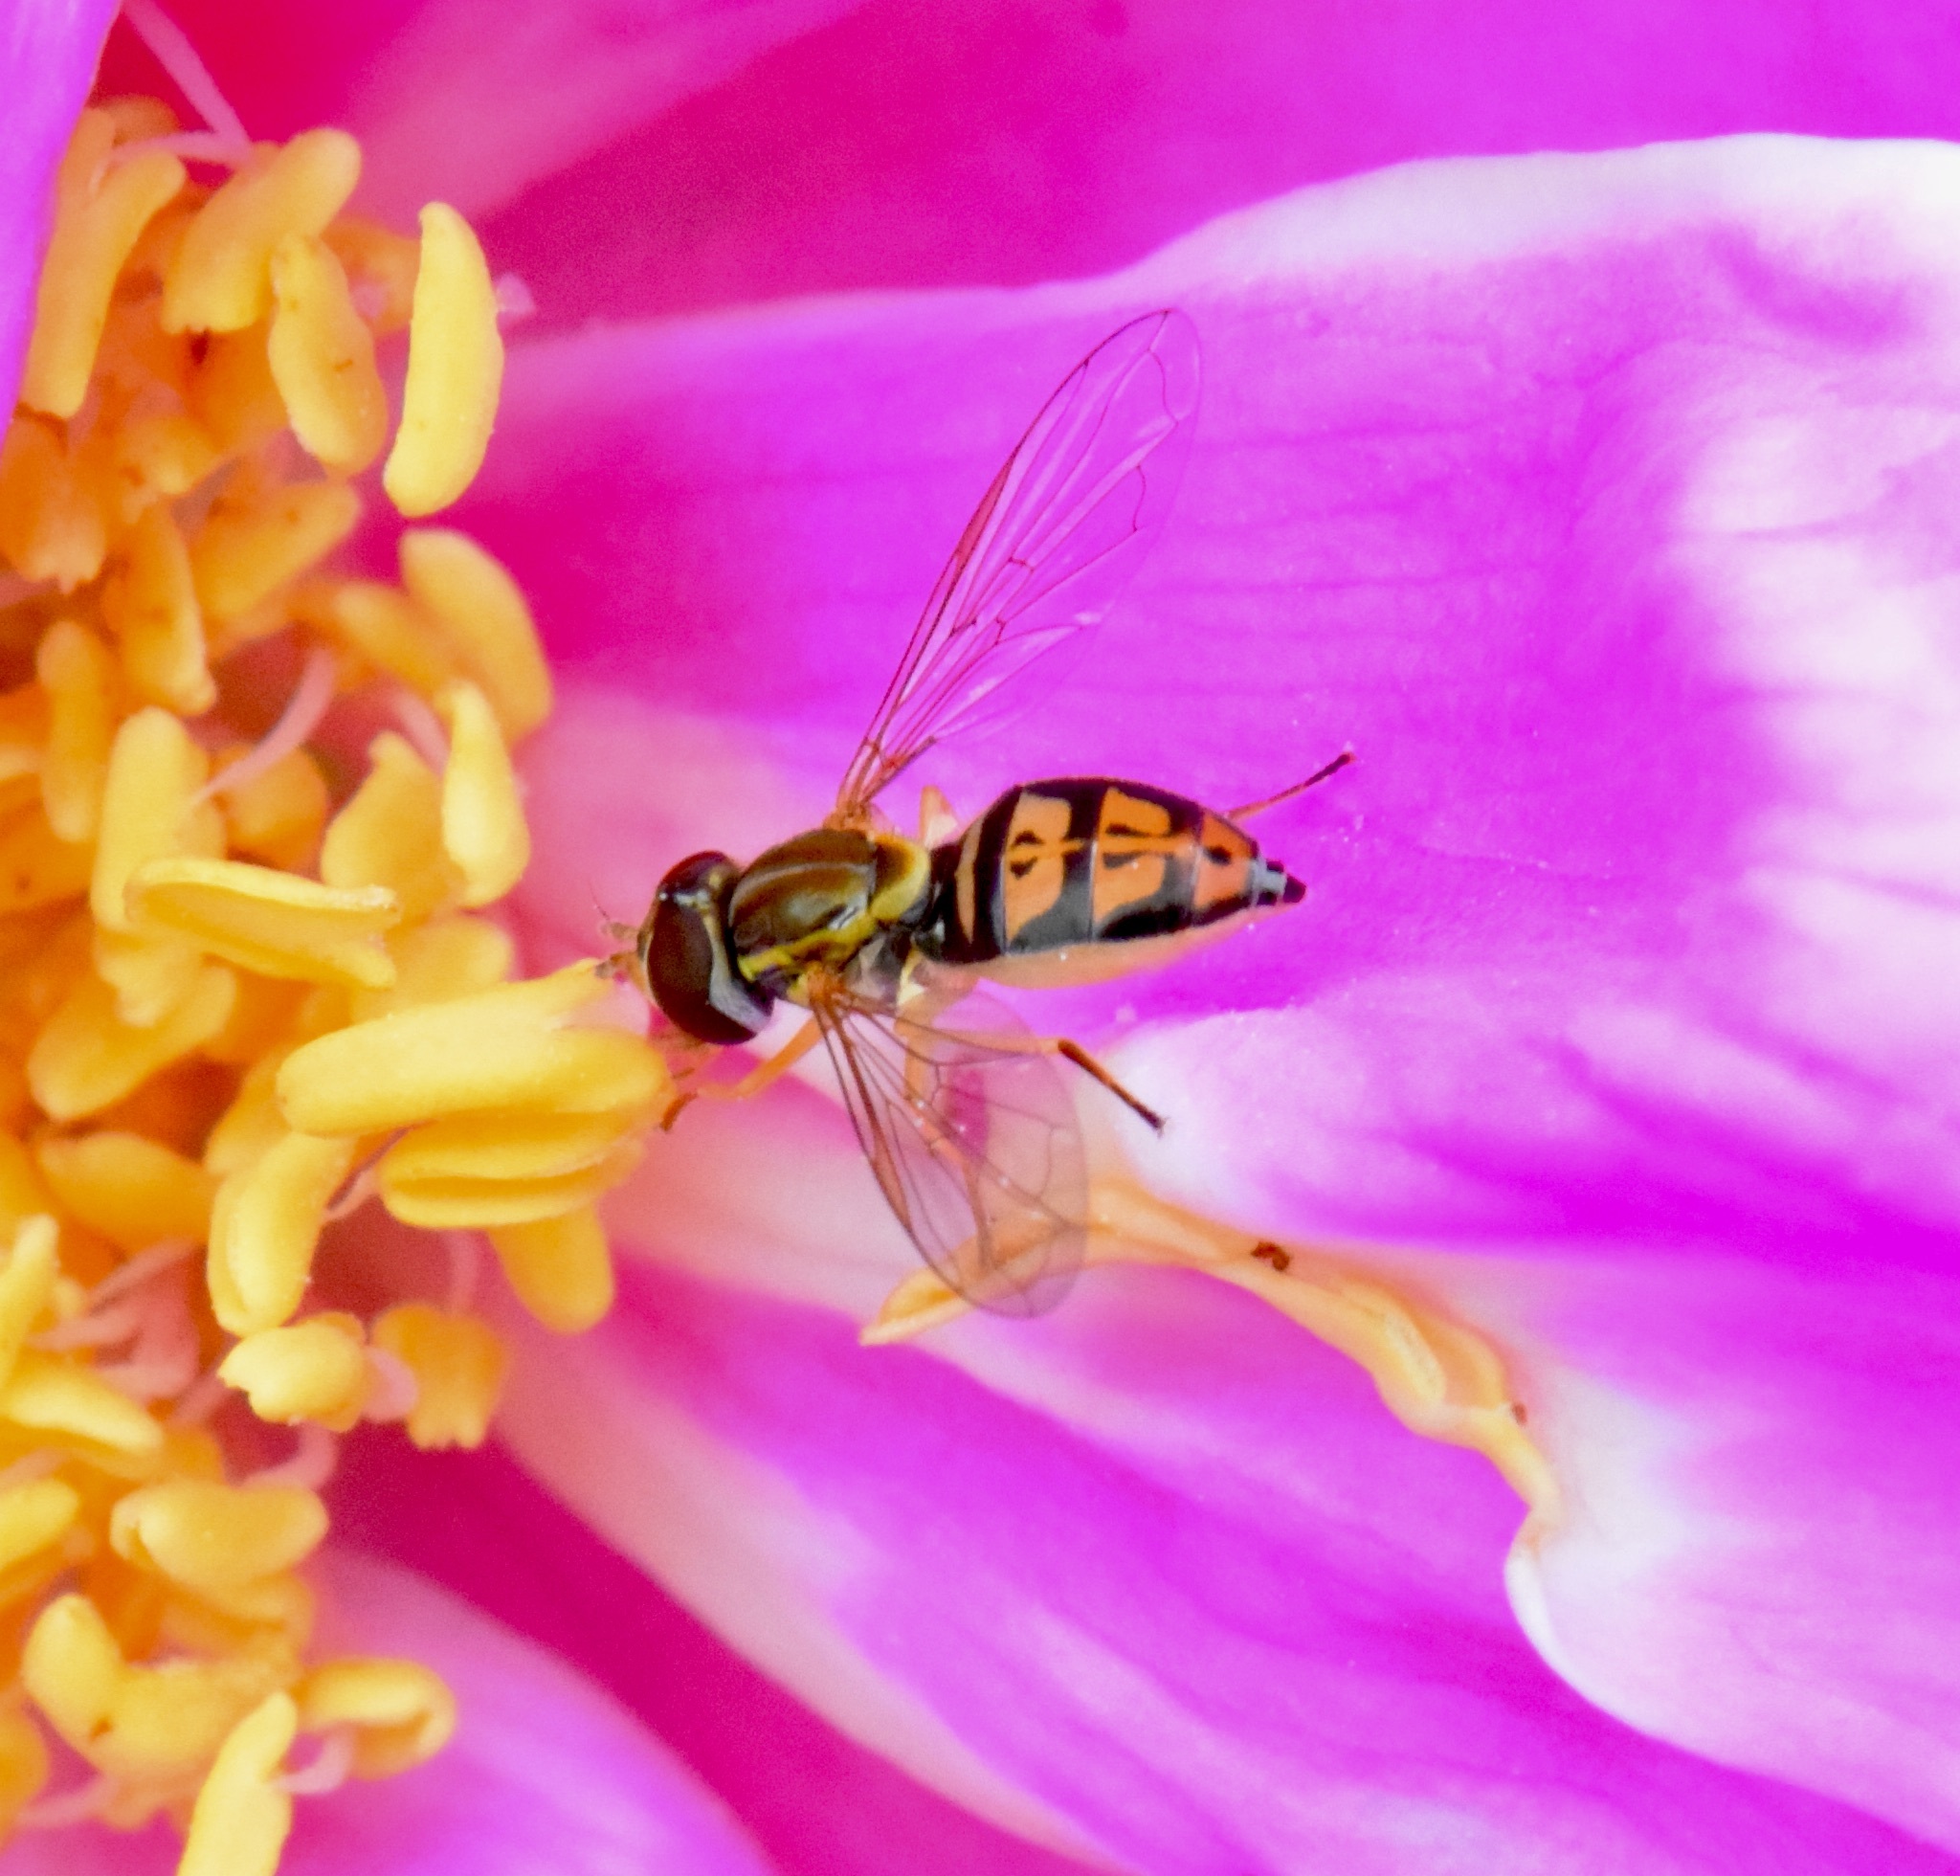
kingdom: Animalia
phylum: Arthropoda
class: Insecta
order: Diptera
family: Syrphidae
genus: Toxomerus
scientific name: Toxomerus marginatus
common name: Syrphid fly
